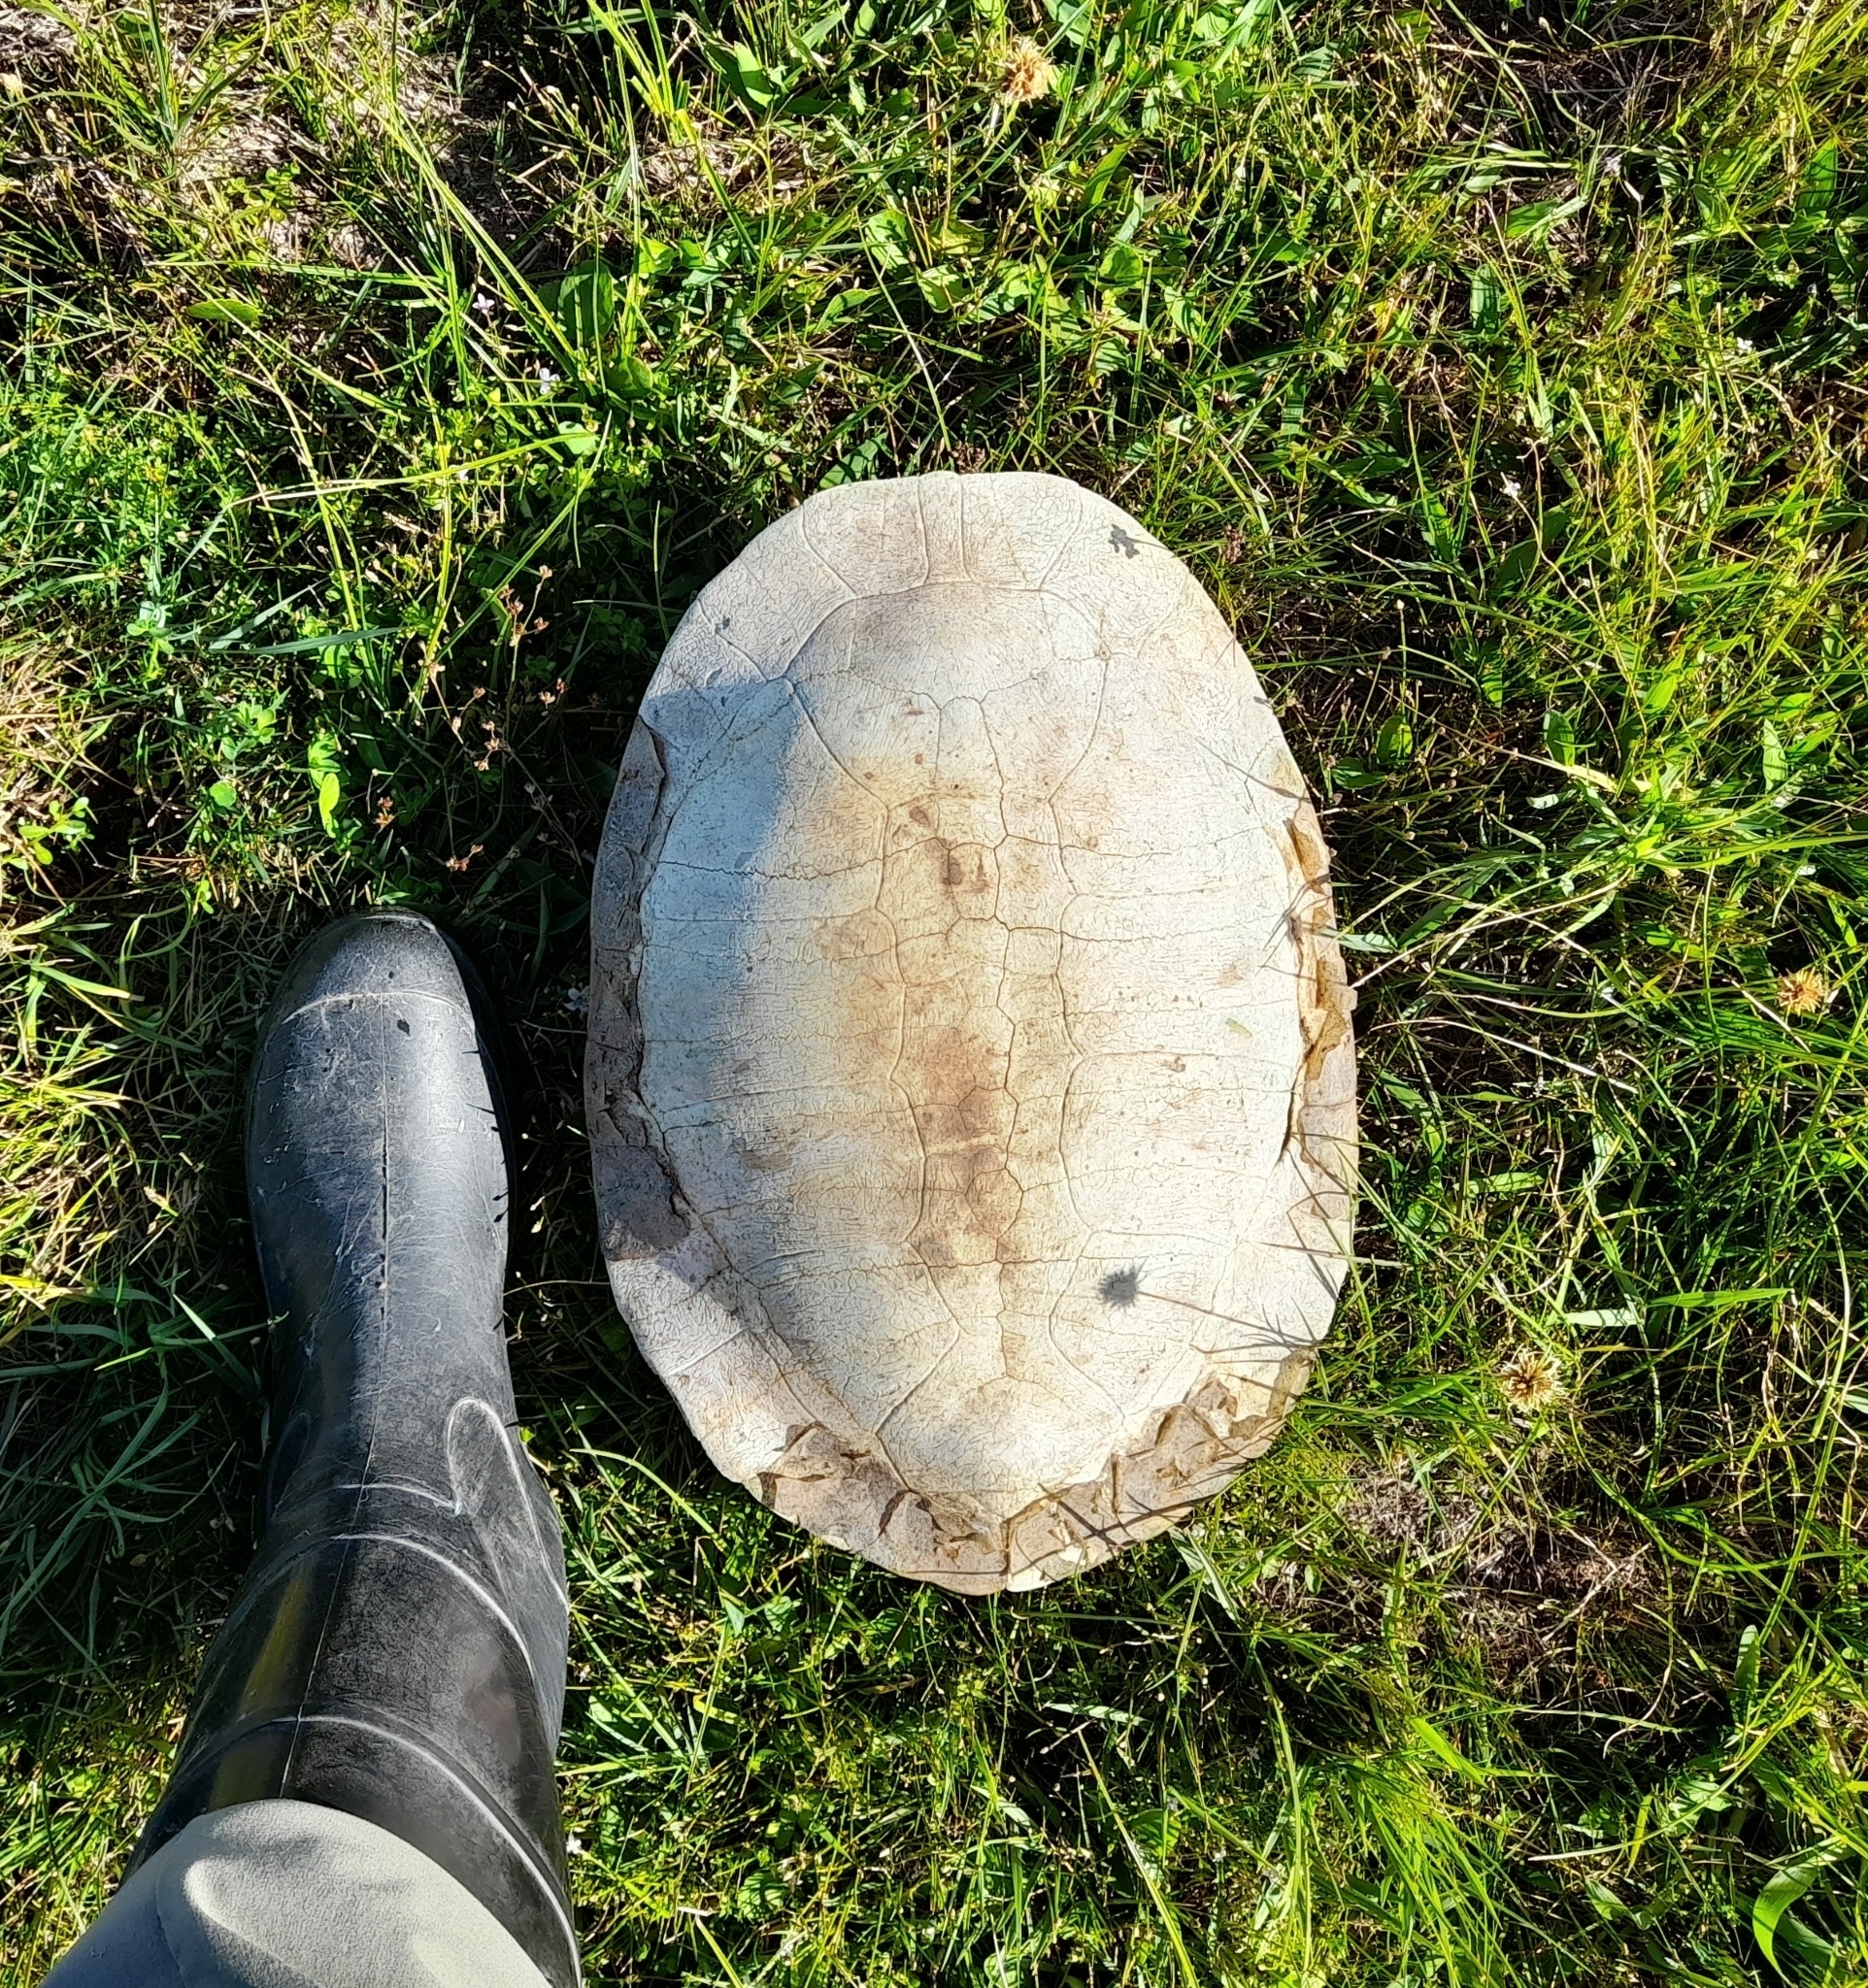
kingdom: Animalia
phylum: Chordata
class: Testudines
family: Chelidae
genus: Phrynops
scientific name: Phrynops hilarii
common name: Side-necked turtle of saint hillaire
